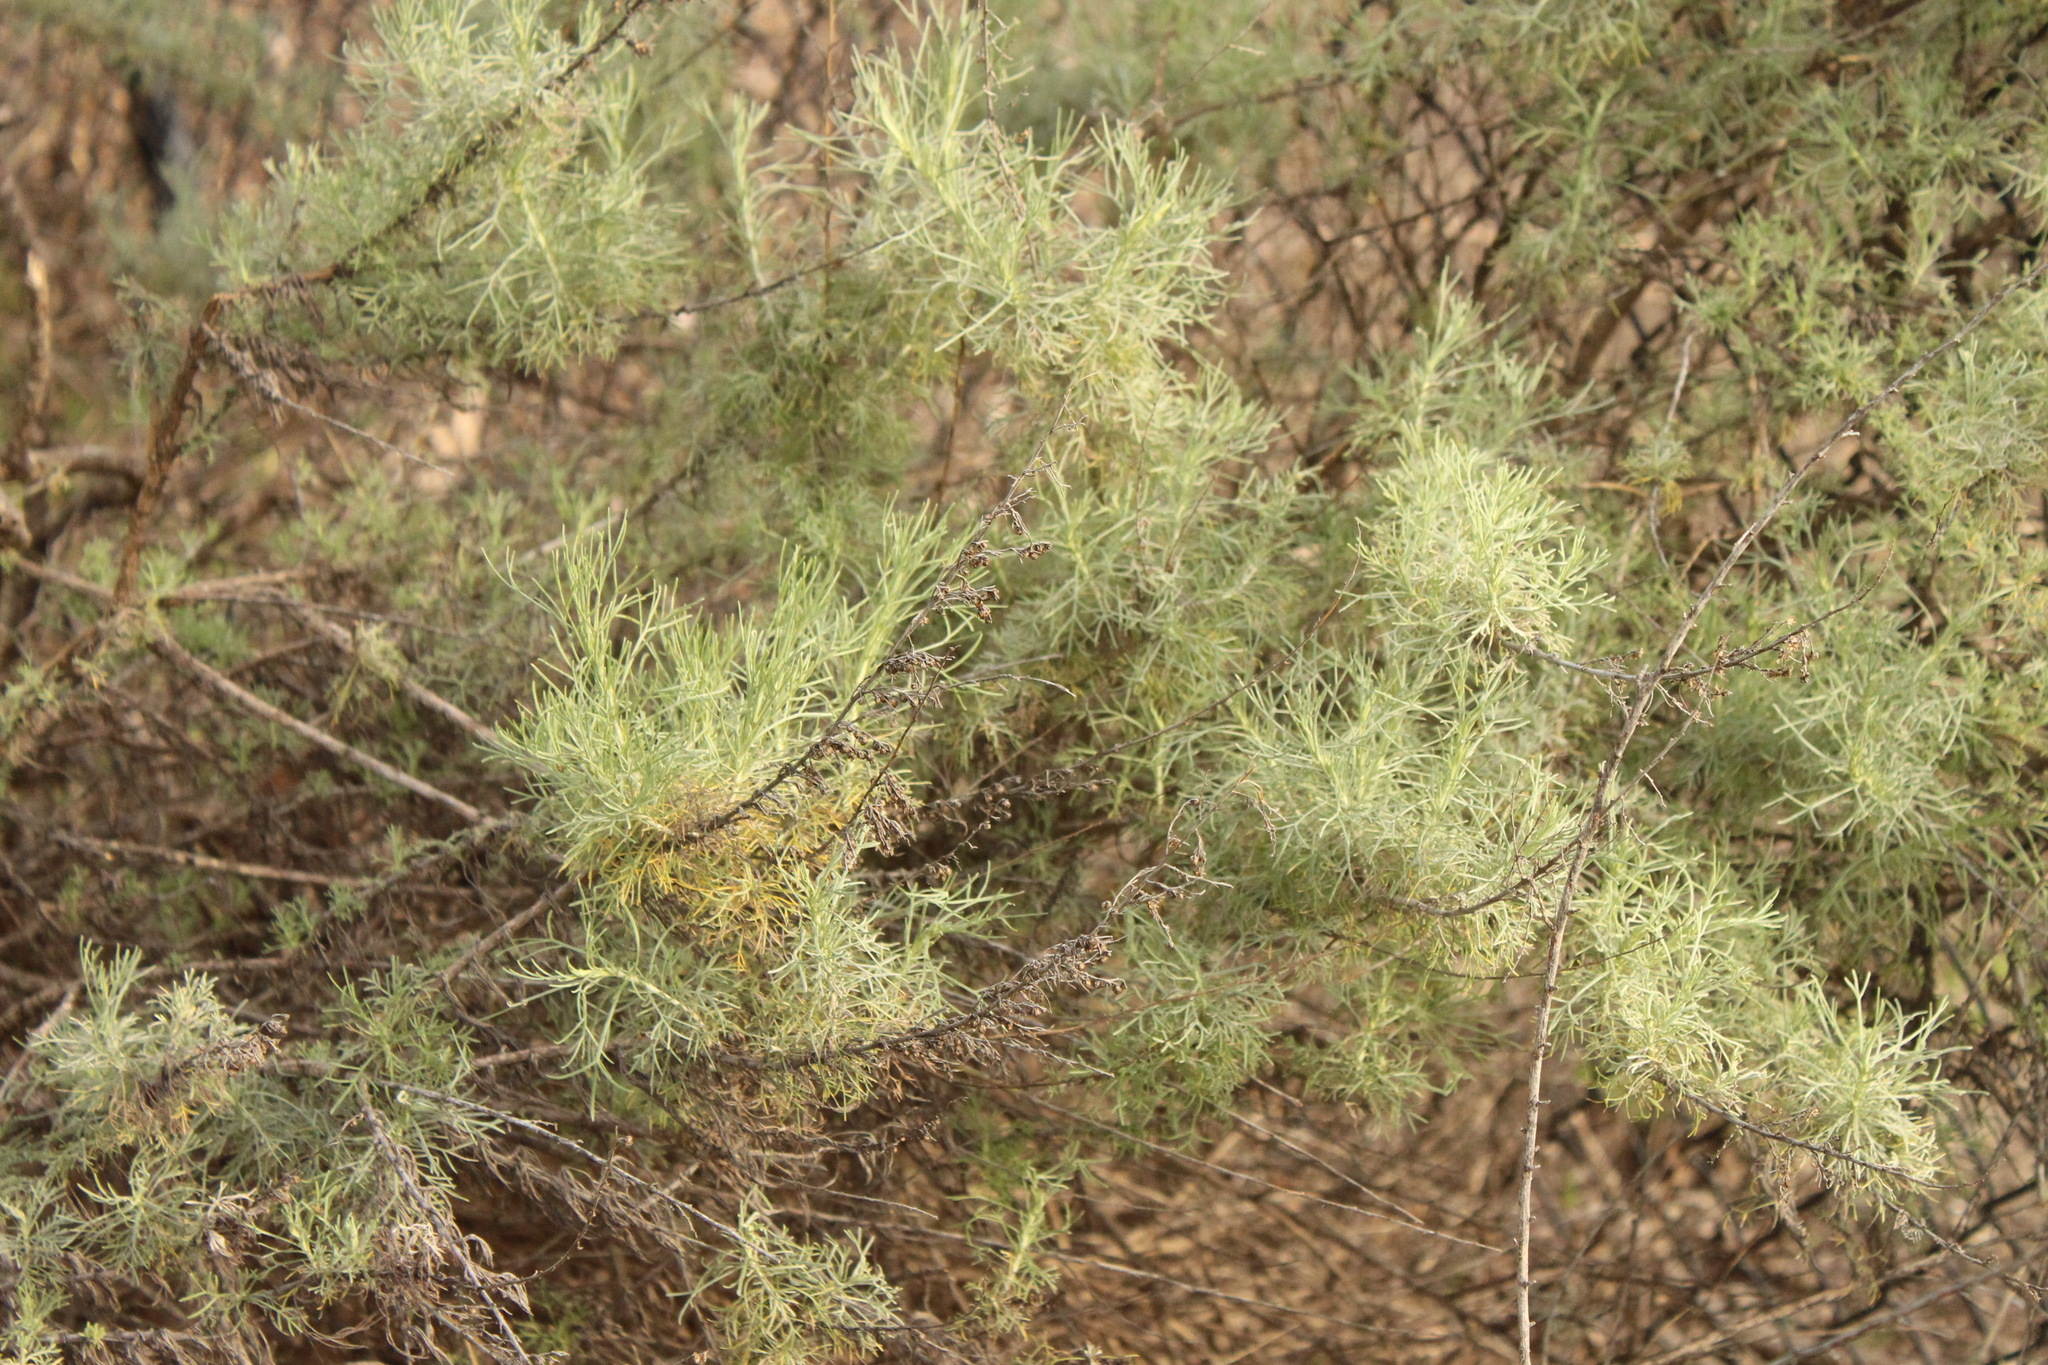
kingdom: Plantae
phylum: Tracheophyta
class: Magnoliopsida
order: Asterales
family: Asteraceae
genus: Artemisia
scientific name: Artemisia californica
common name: California sagebrush
